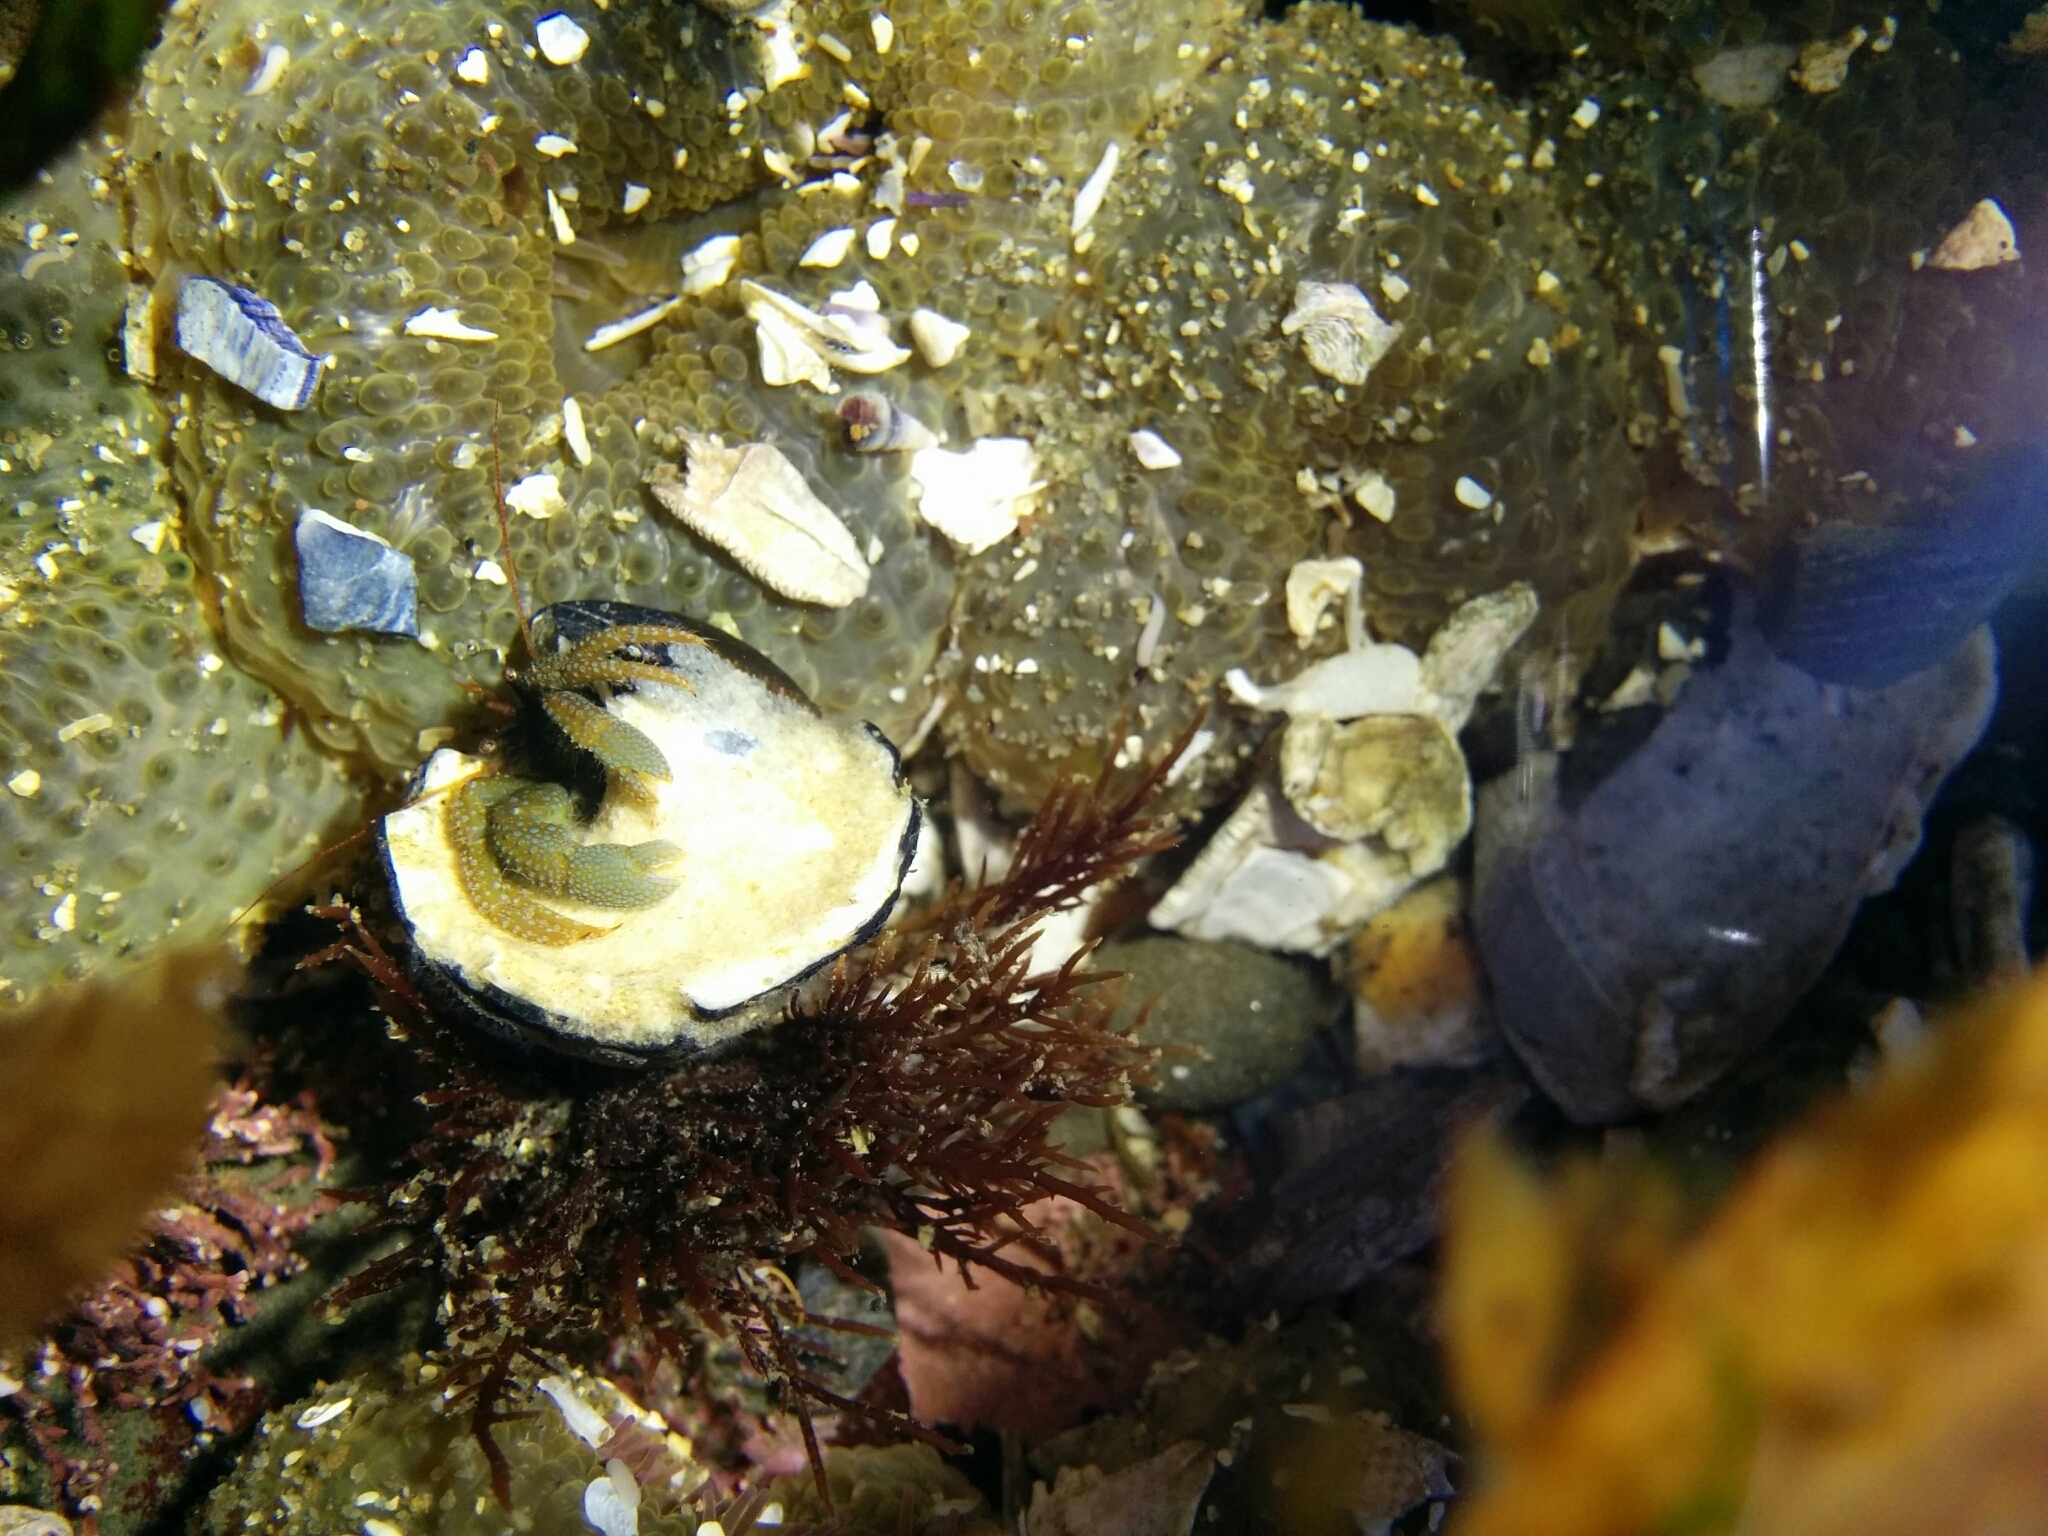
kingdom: Animalia
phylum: Arthropoda
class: Malacostraca
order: Decapoda
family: Paguridae
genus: Pagurus
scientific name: Pagurus granosimanus
